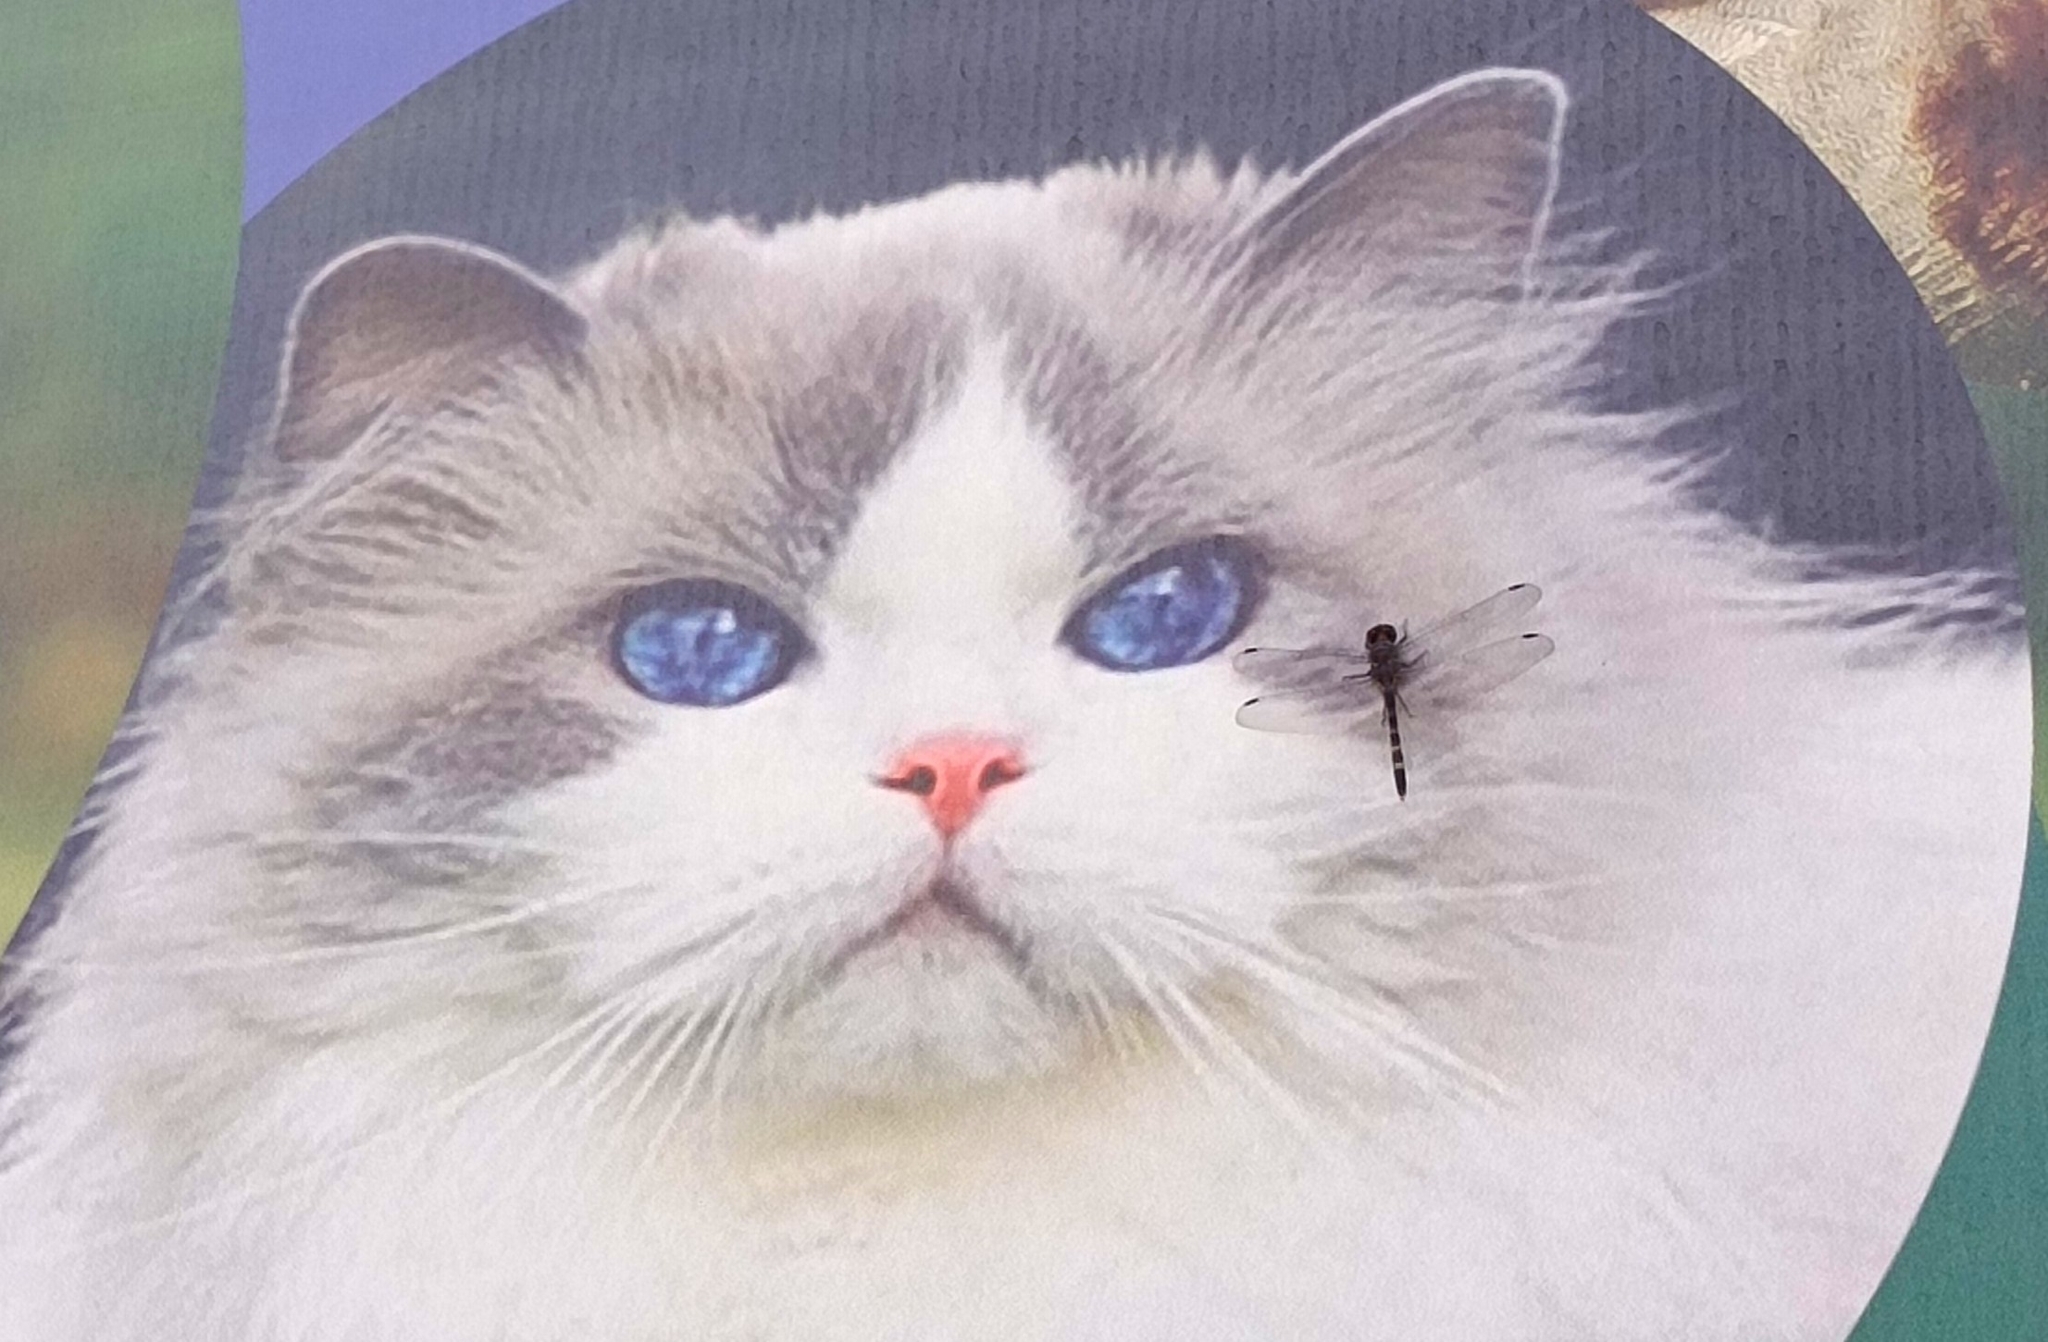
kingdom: Animalia
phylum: Arthropoda
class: Insecta
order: Odonata
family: Libellulidae
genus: Bradinopyga
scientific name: Bradinopyga geminata
